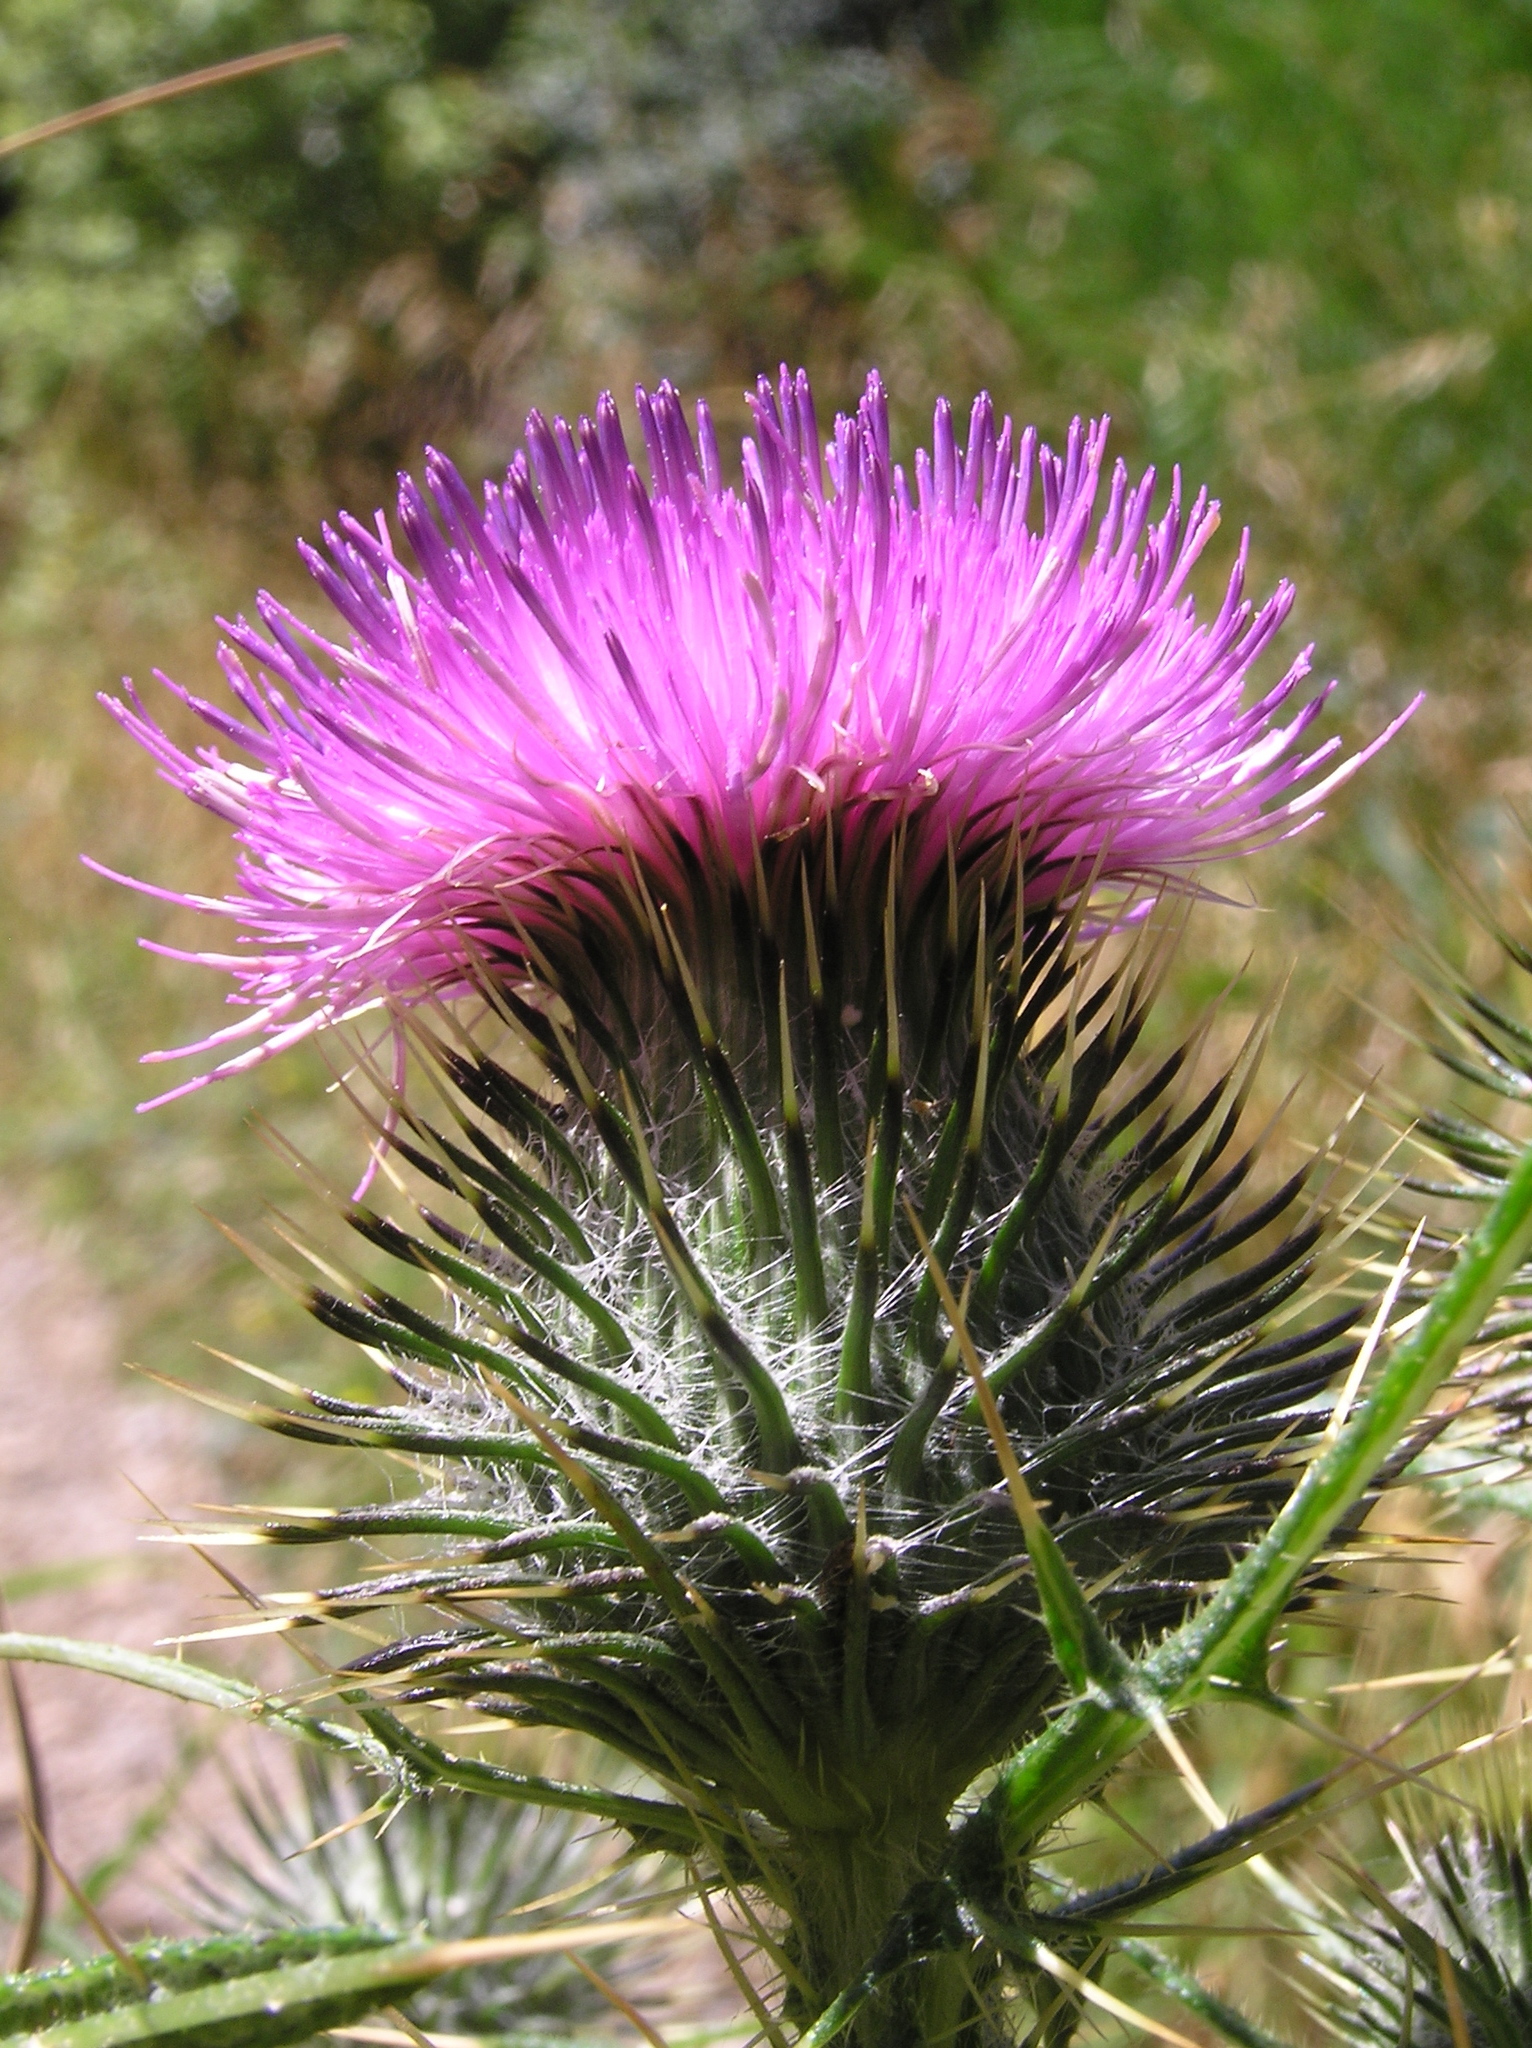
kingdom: Plantae
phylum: Tracheophyta
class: Magnoliopsida
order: Asterales
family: Asteraceae
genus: Cirsium
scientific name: Cirsium vulgare
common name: Bull thistle
